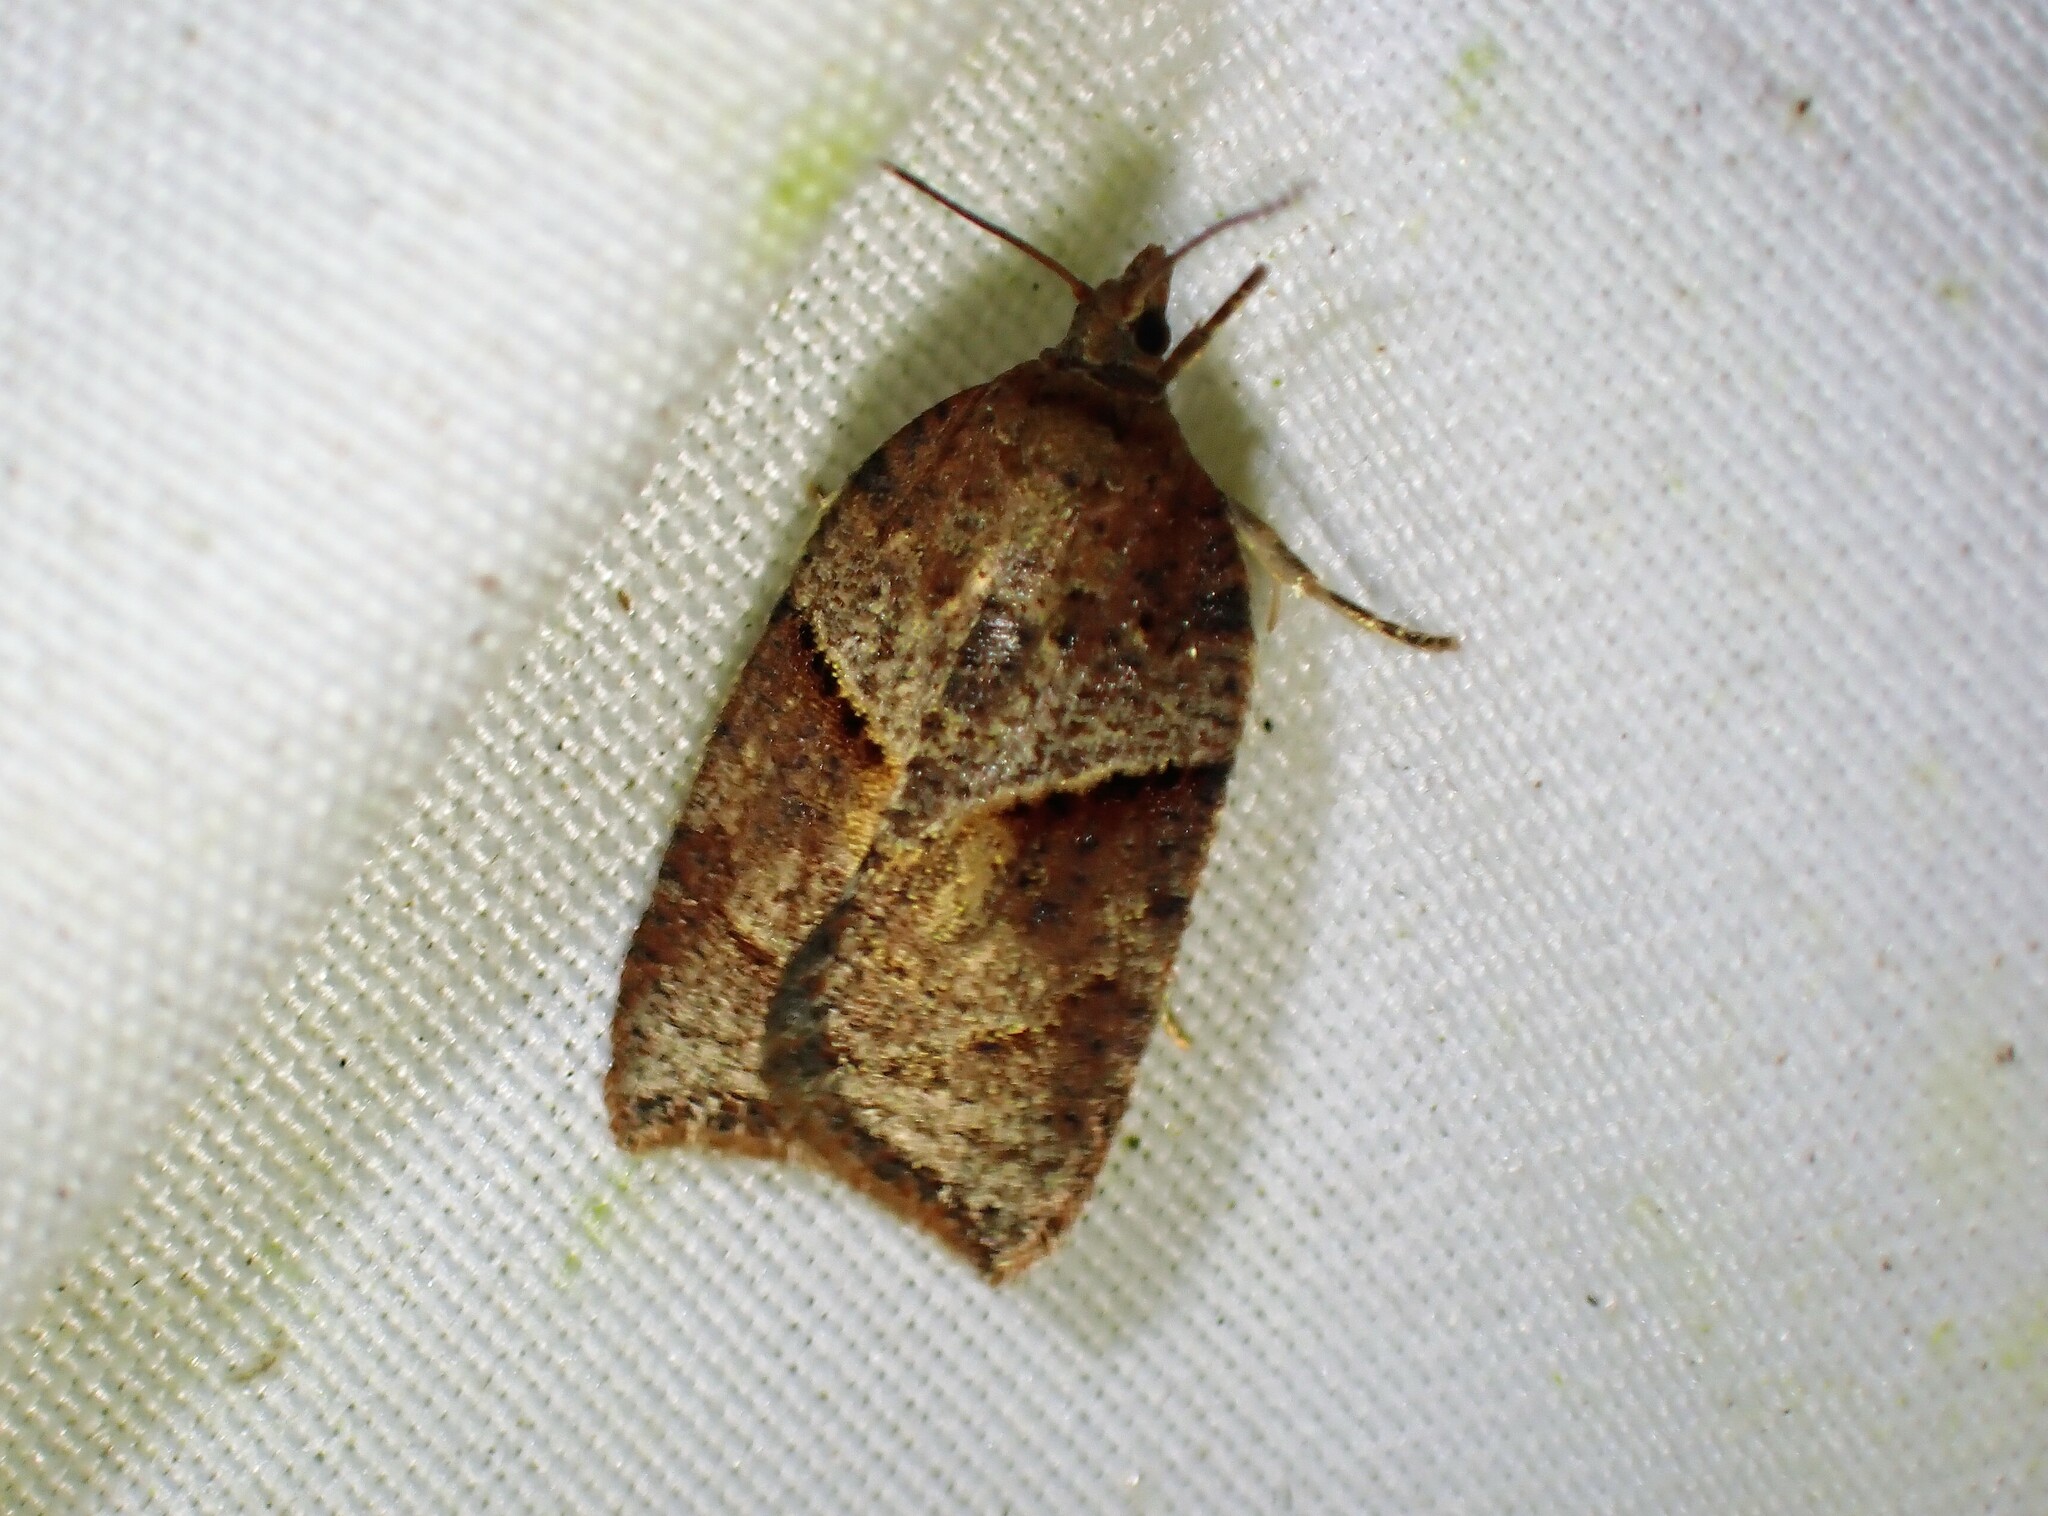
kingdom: Animalia
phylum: Arthropoda
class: Insecta
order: Lepidoptera
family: Tortricidae
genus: Acleris
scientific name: Acleris maccana
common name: Marbled button
